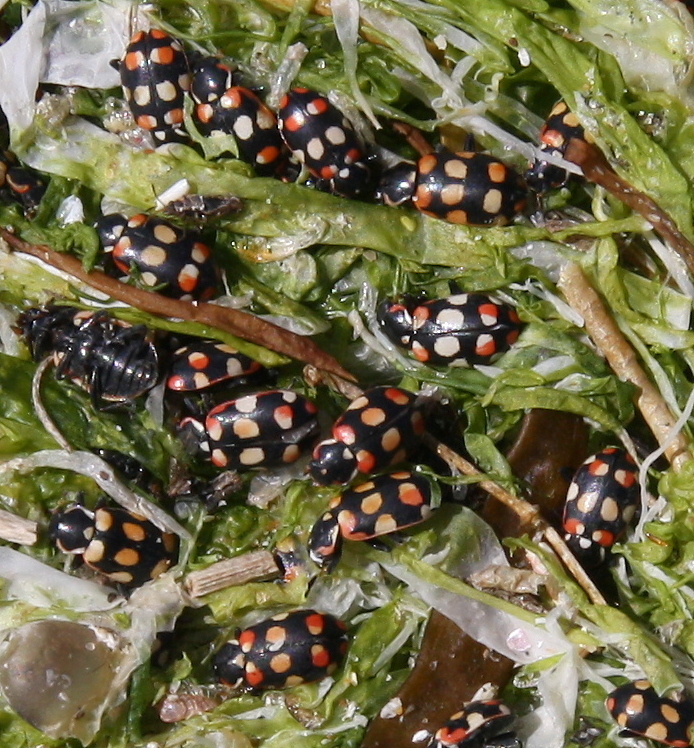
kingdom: Animalia
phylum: Arthropoda
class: Insecta
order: Coleoptera
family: Coccinellidae
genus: Eriopis
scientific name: Eriopis connexa
